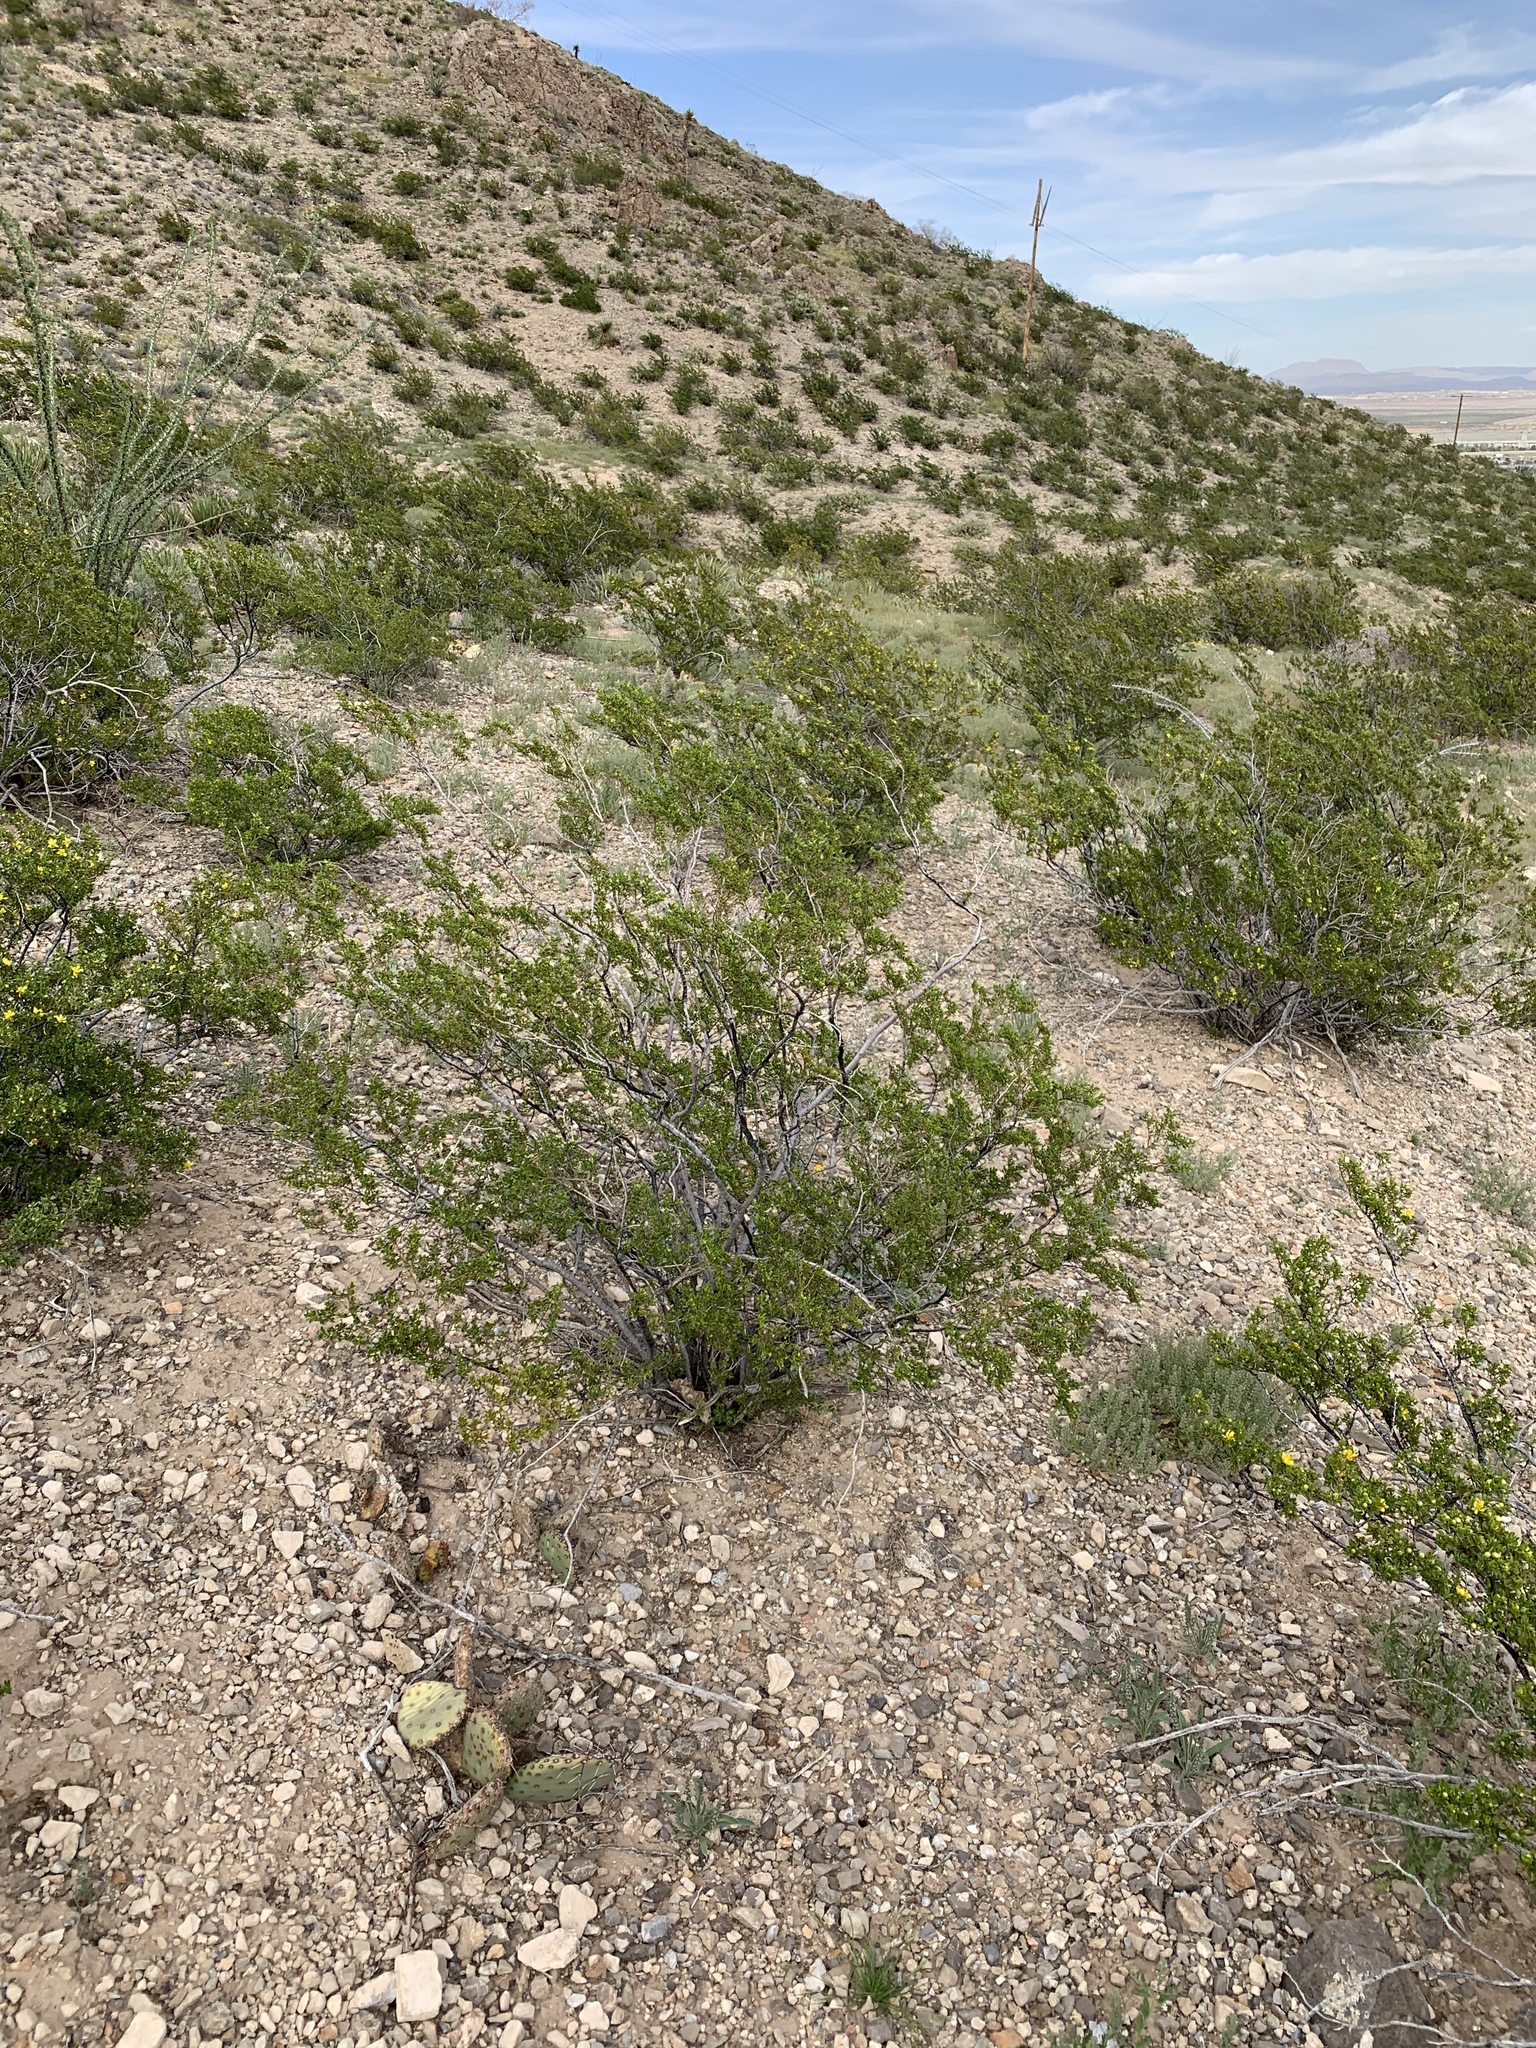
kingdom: Plantae
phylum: Tracheophyta
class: Magnoliopsida
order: Zygophyllales
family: Zygophyllaceae
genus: Larrea
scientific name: Larrea tridentata
